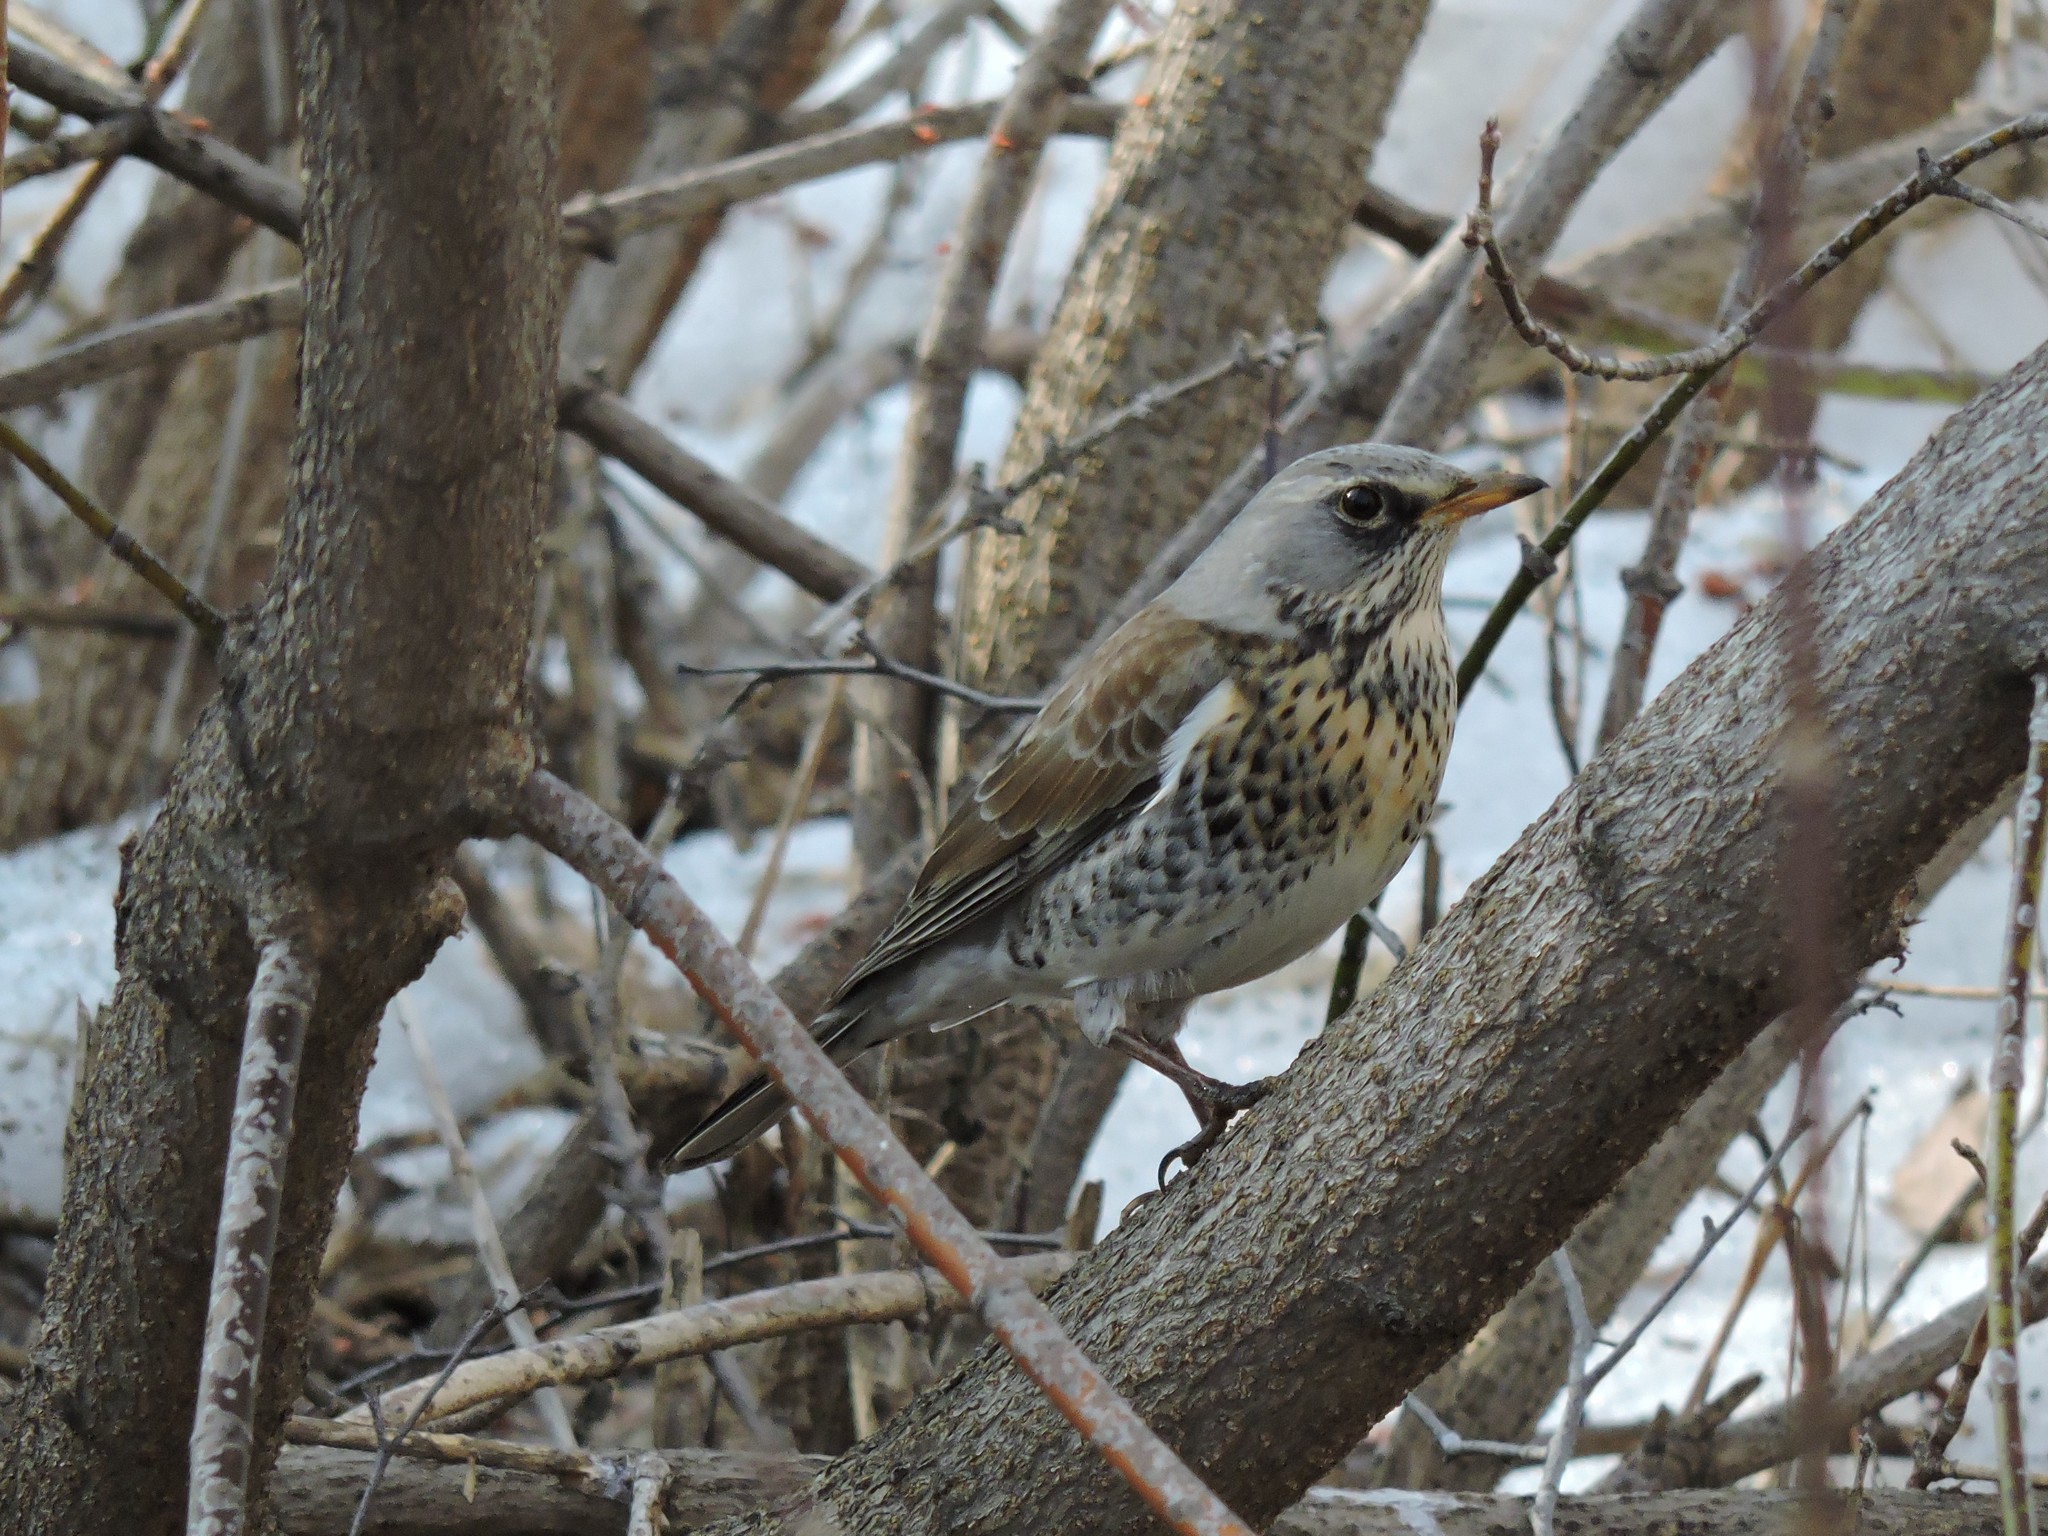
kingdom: Animalia
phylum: Chordata
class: Aves
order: Passeriformes
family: Turdidae
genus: Turdus
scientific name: Turdus pilaris
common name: Fieldfare
